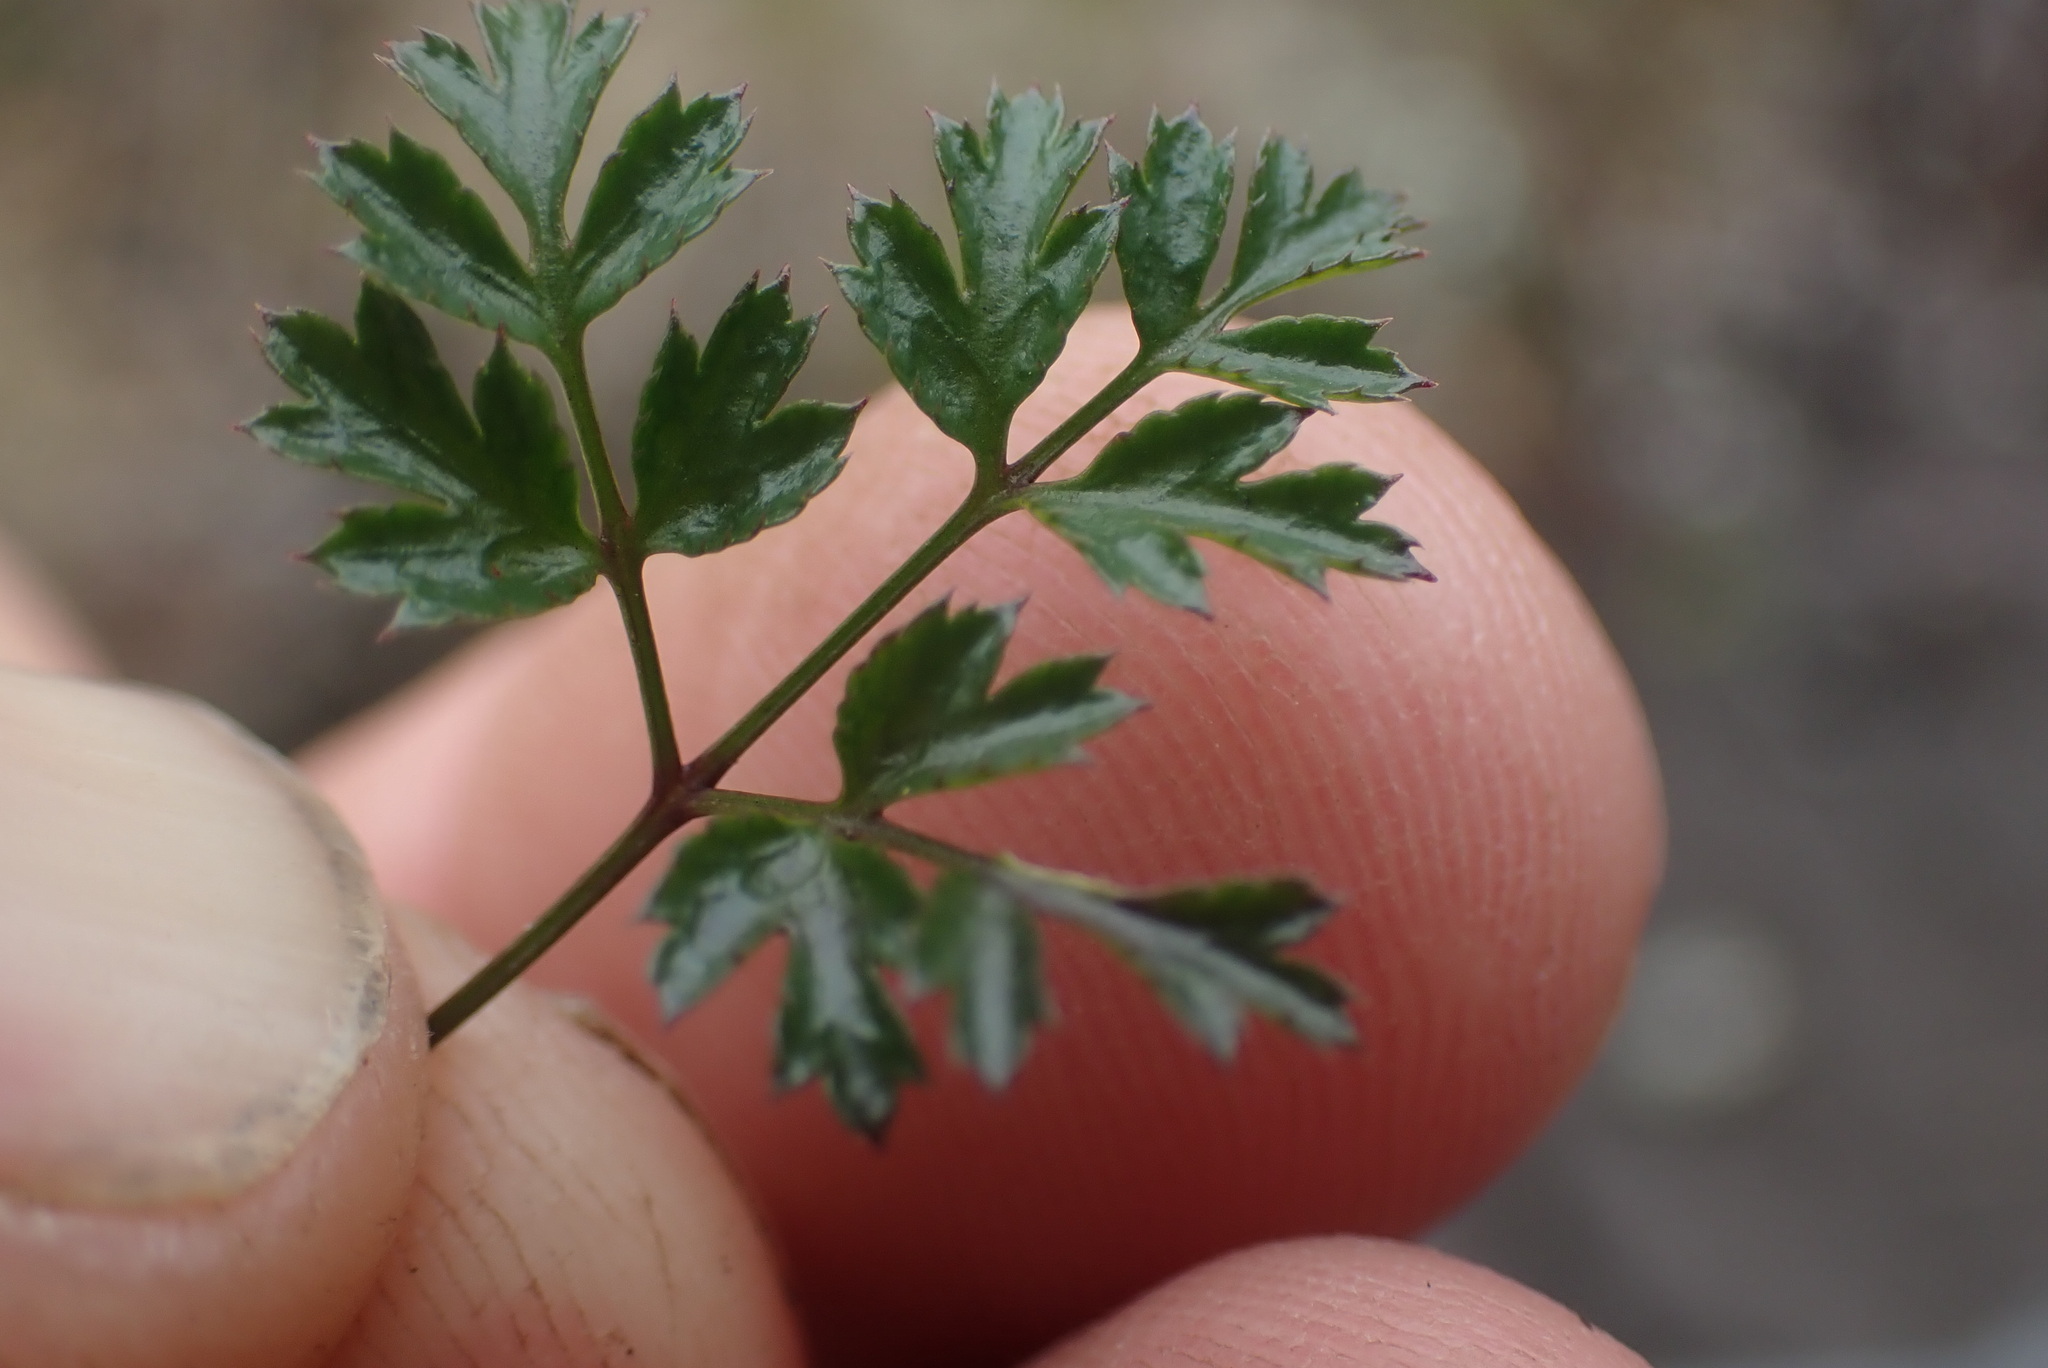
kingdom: Plantae
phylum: Tracheophyta
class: Magnoliopsida
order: Ranunculales
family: Ranunculaceae
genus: Coptis
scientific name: Coptis aspleniifolia
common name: Fern-leaved goldthread
